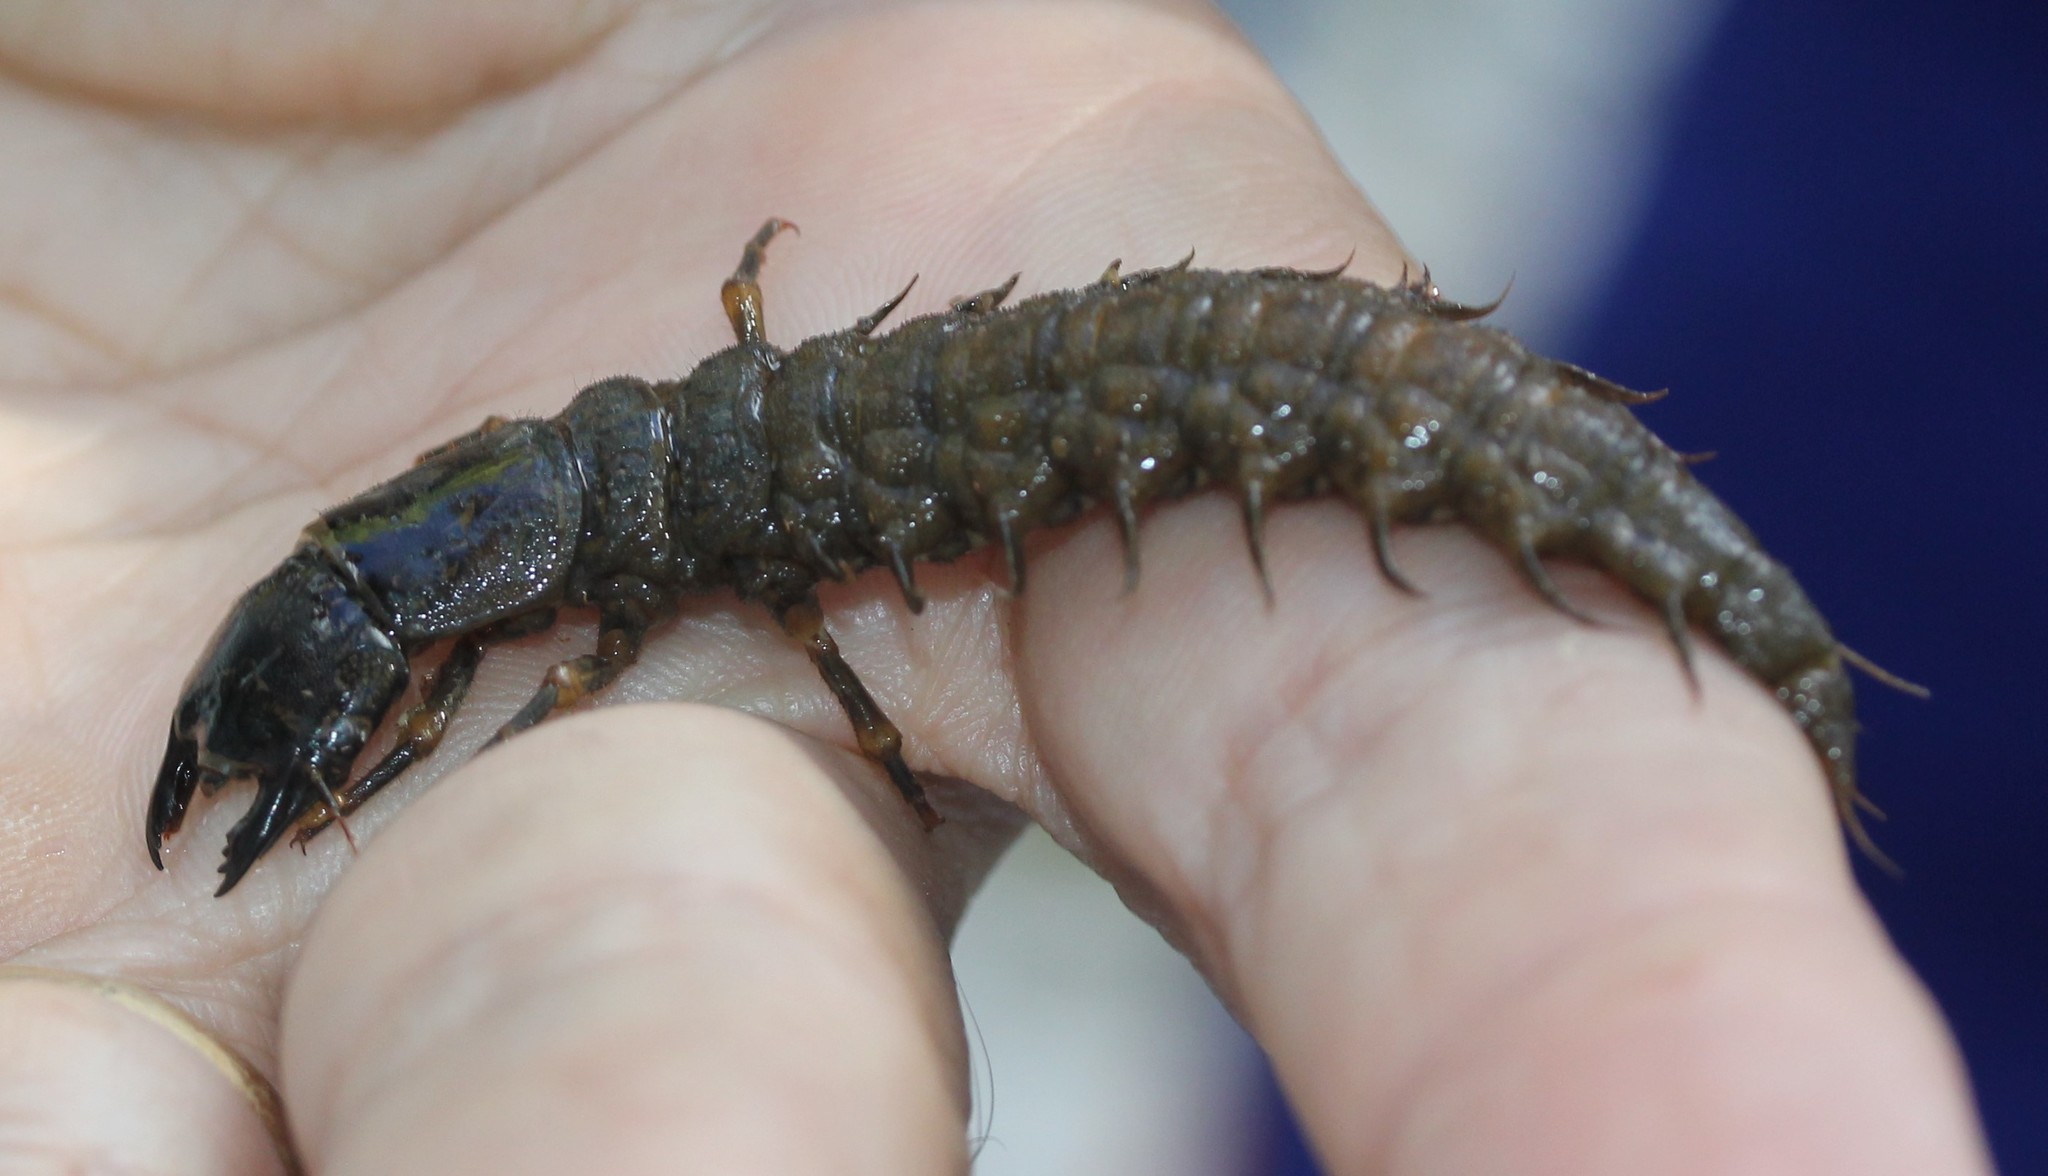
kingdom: Animalia
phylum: Arthropoda
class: Insecta
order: Megaloptera
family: Corydalidae
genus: Corydalus
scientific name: Corydalus cornutus
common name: Dobsonfly
